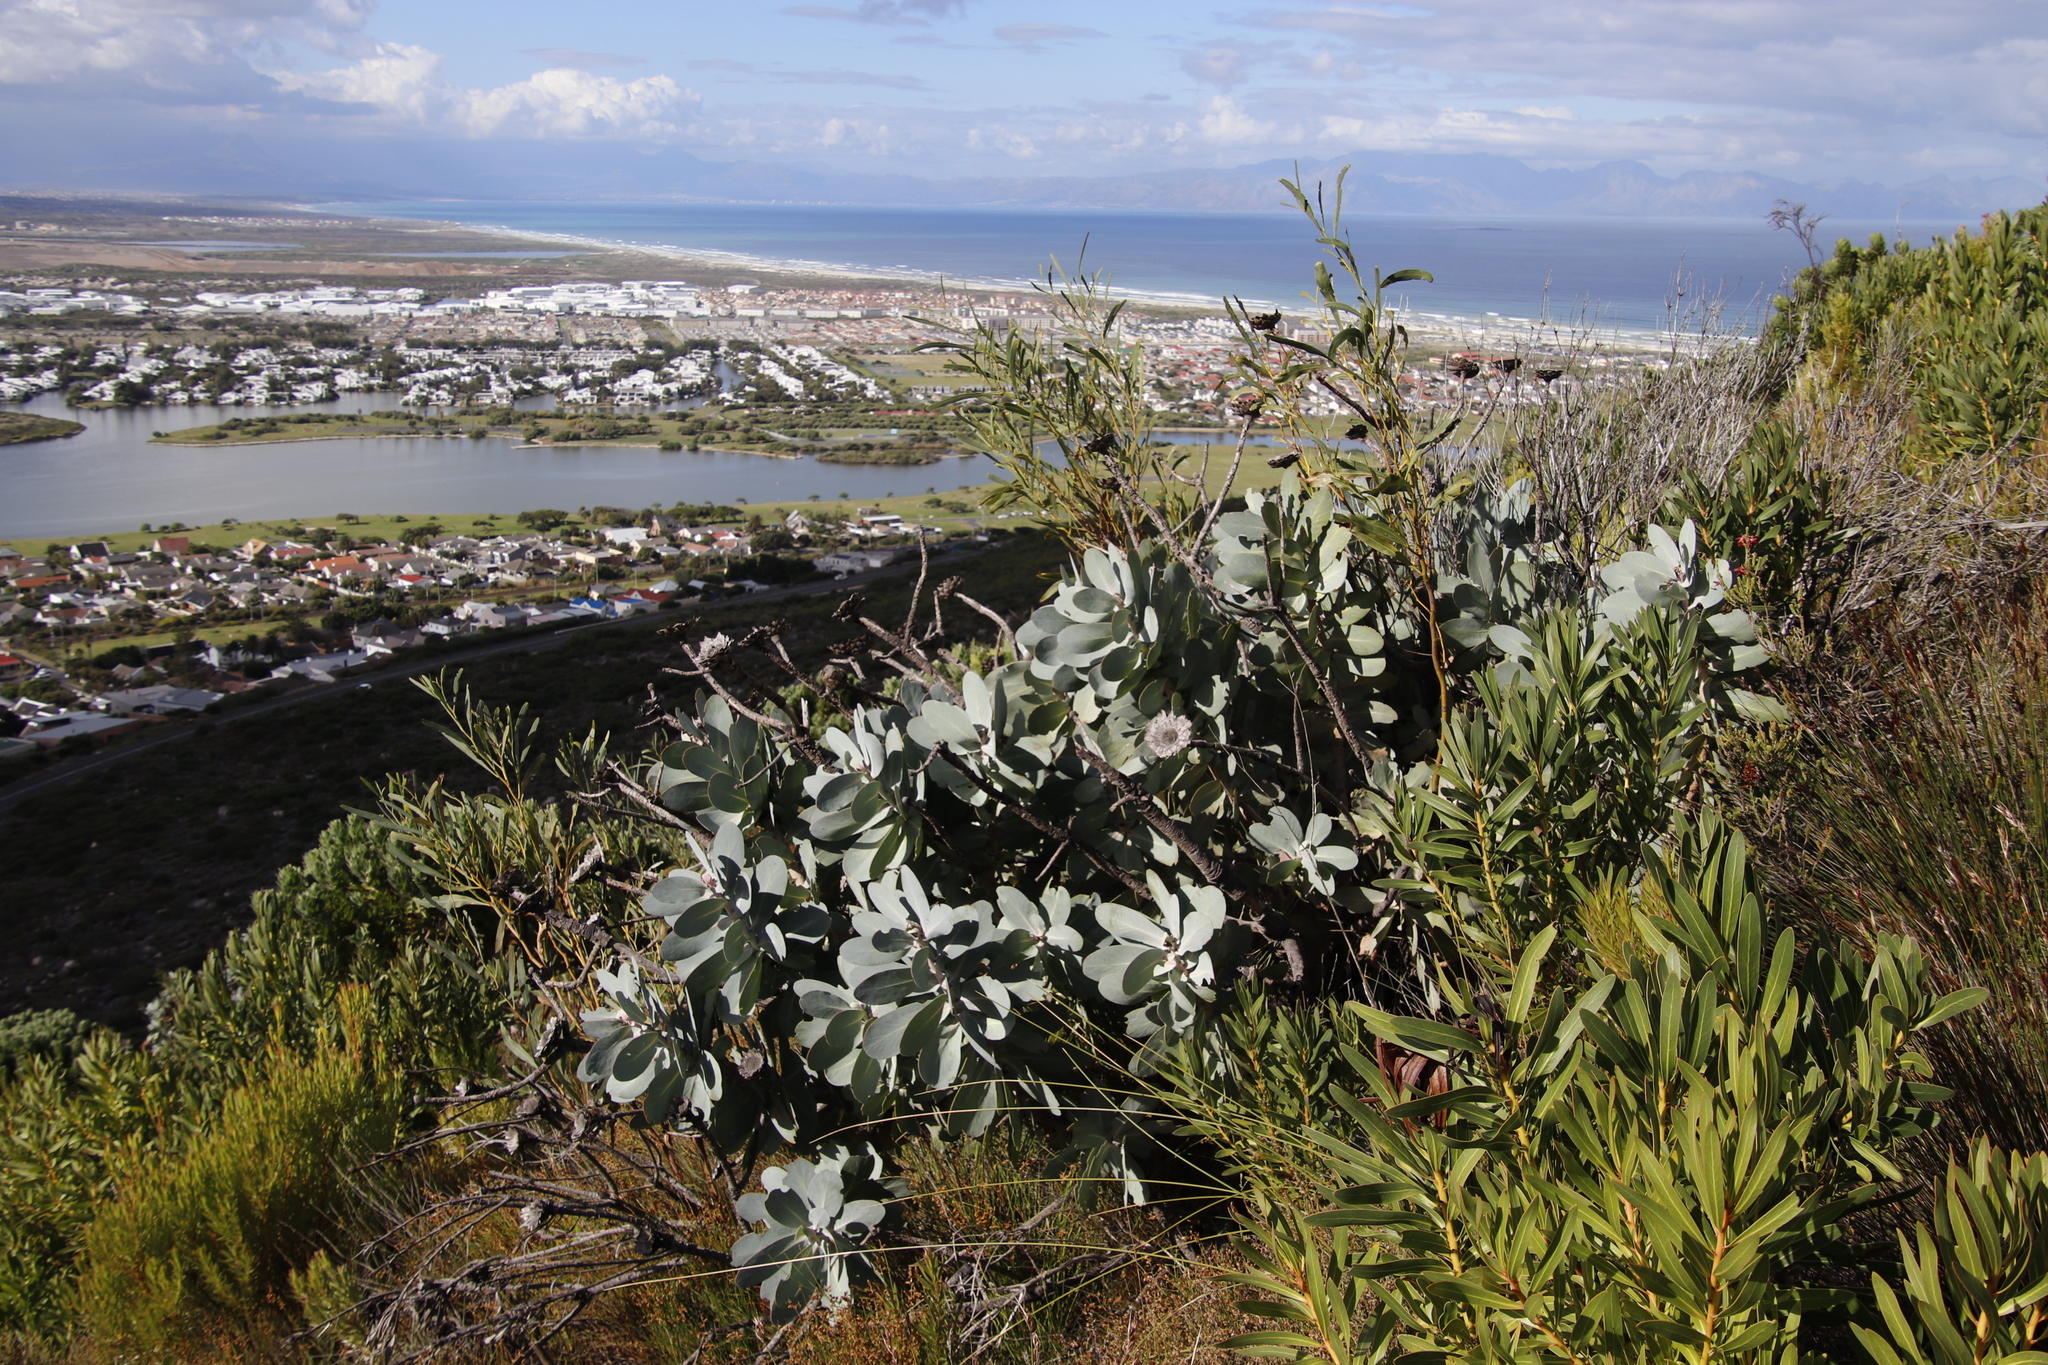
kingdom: Plantae
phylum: Tracheophyta
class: Magnoliopsida
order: Proteales
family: Proteaceae
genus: Protea
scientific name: Protea nitida
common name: Tree protea
